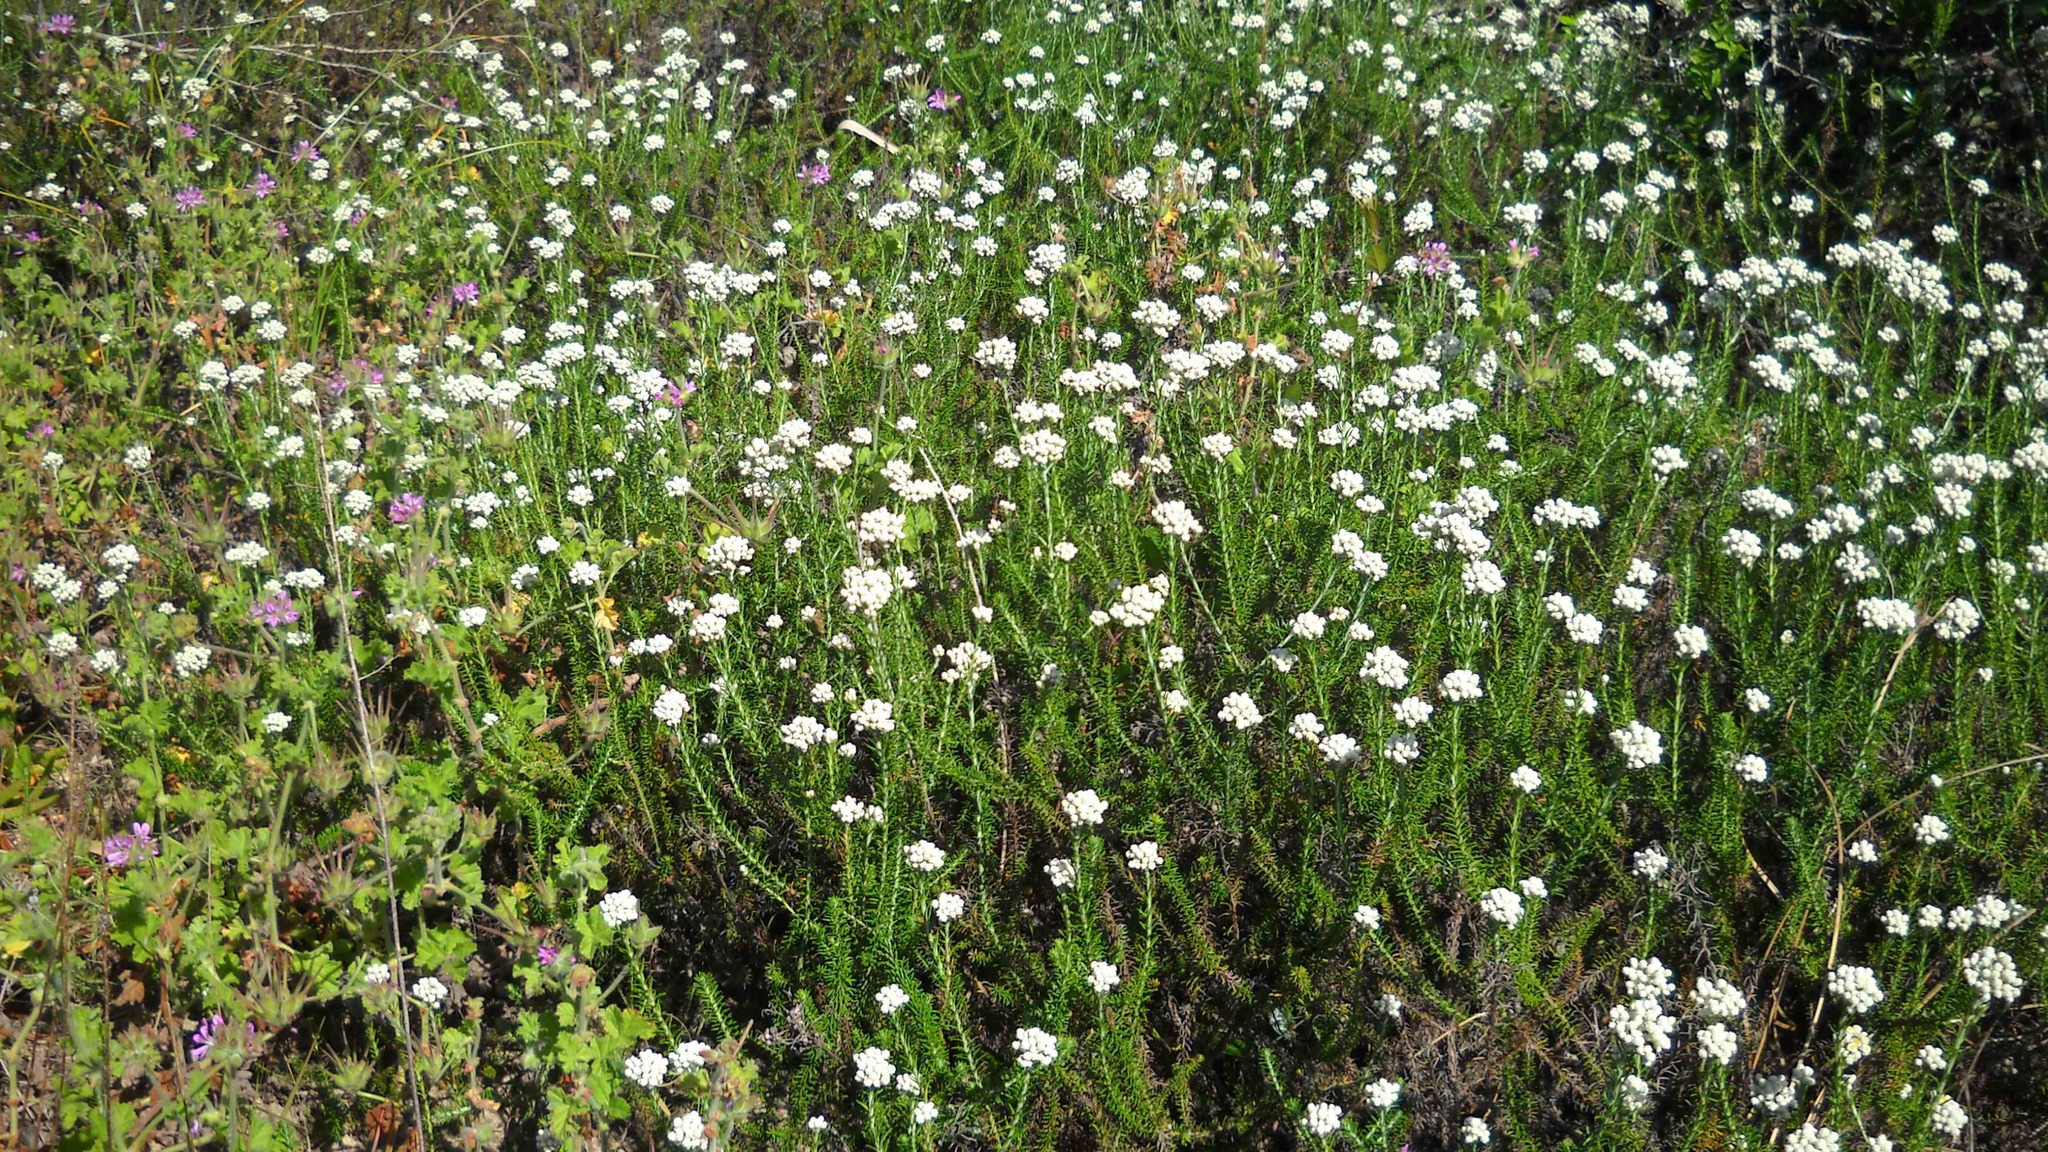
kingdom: Plantae
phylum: Tracheophyta
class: Magnoliopsida
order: Asterales
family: Asteraceae
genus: Helichrysum
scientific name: Helichrysum teretifolium
